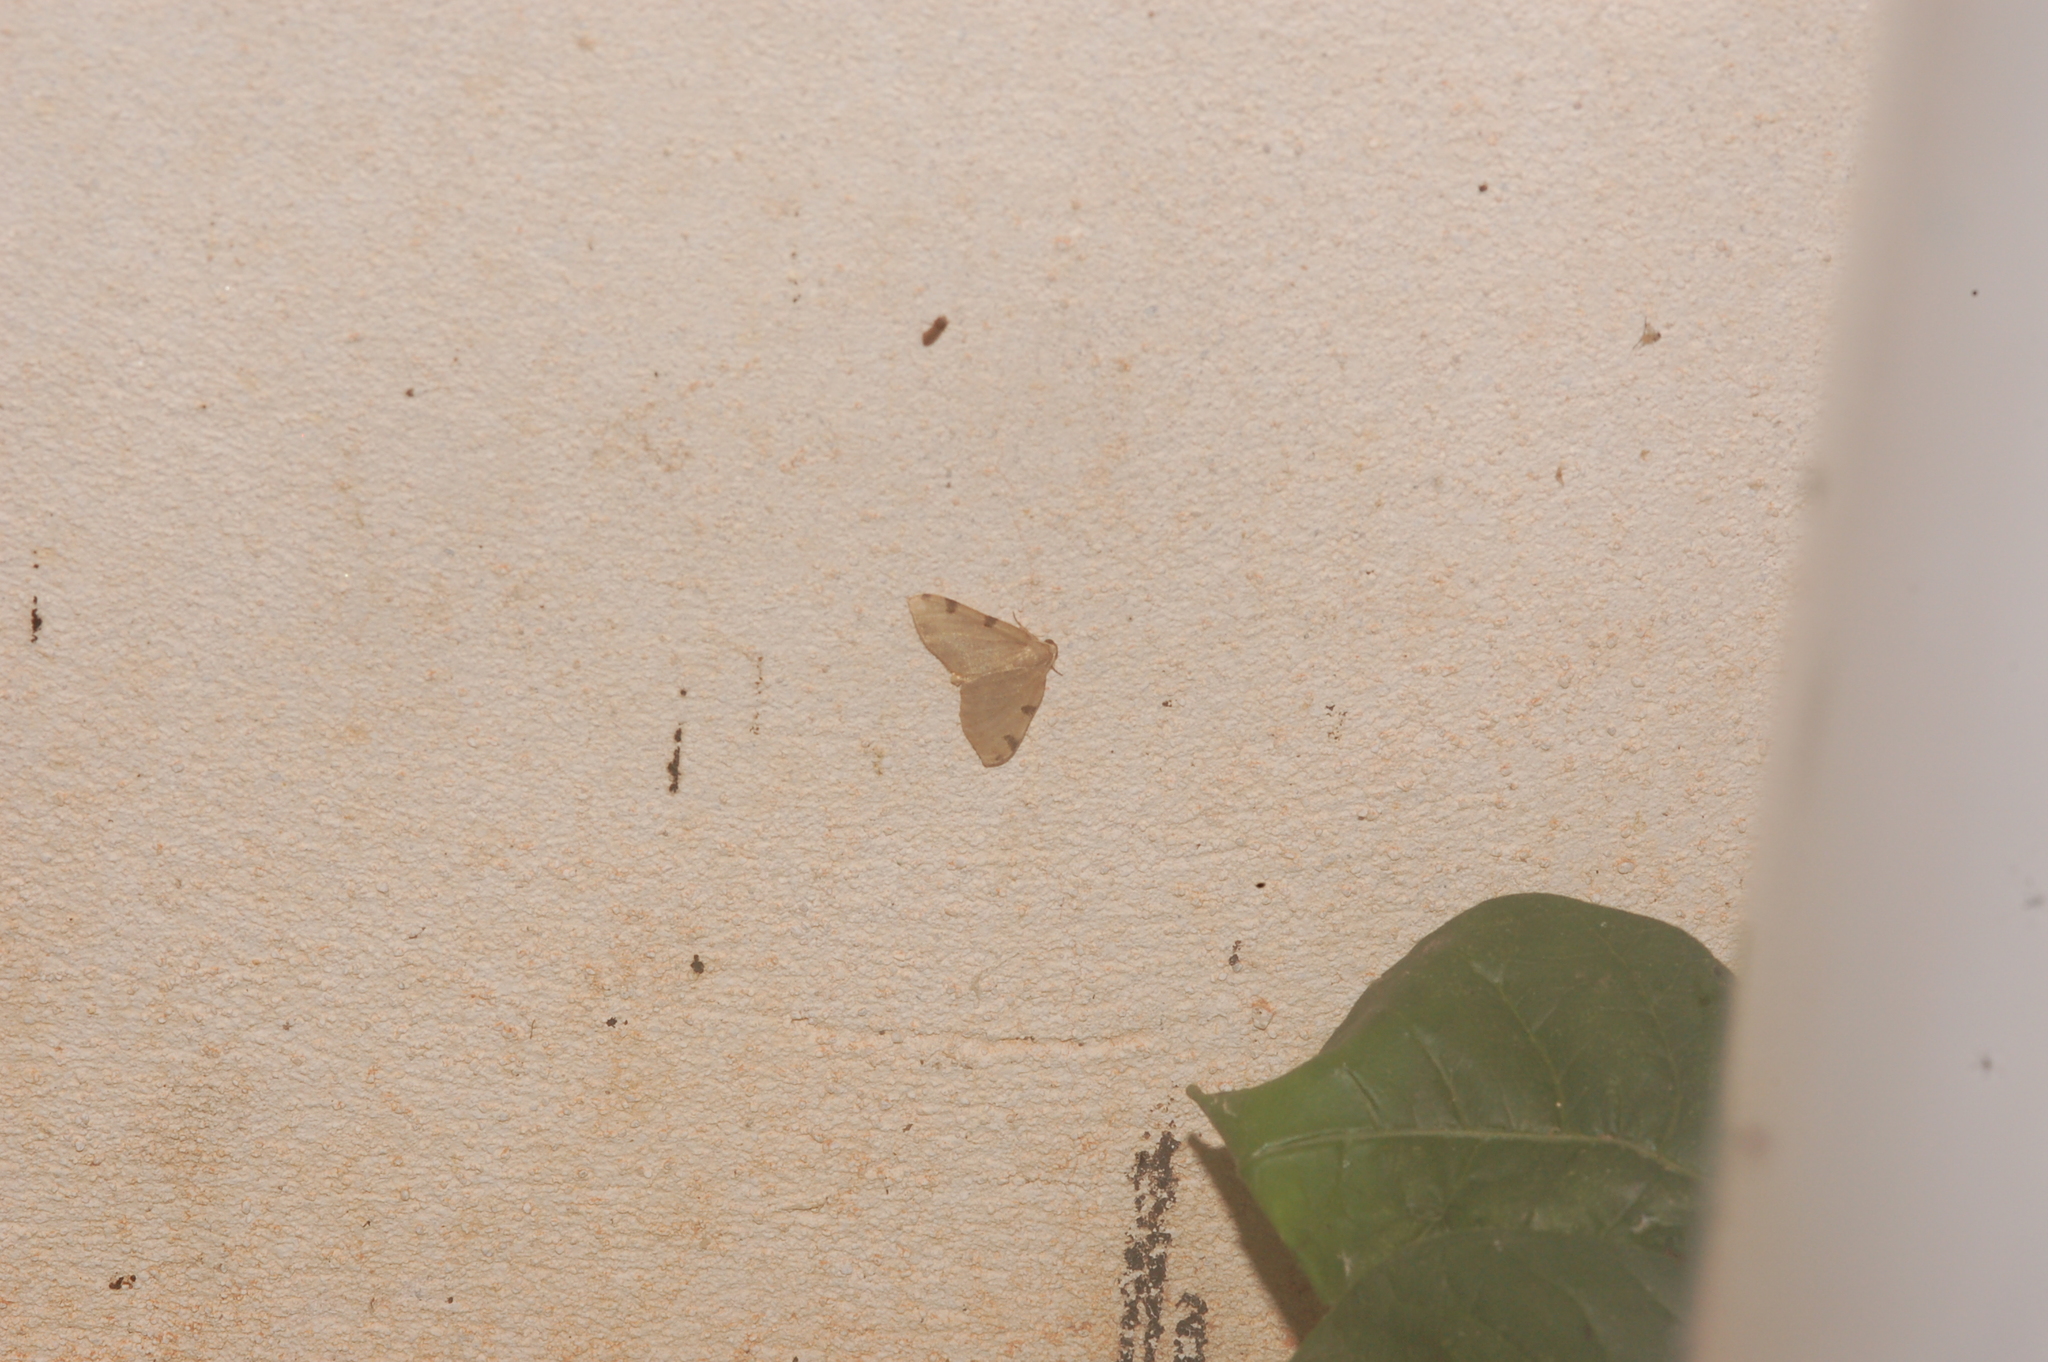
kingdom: Animalia
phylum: Arthropoda
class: Insecta
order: Lepidoptera
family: Geometridae
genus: Heterophleps
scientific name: Heterophleps triguttaria
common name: Three-spotted fillip
